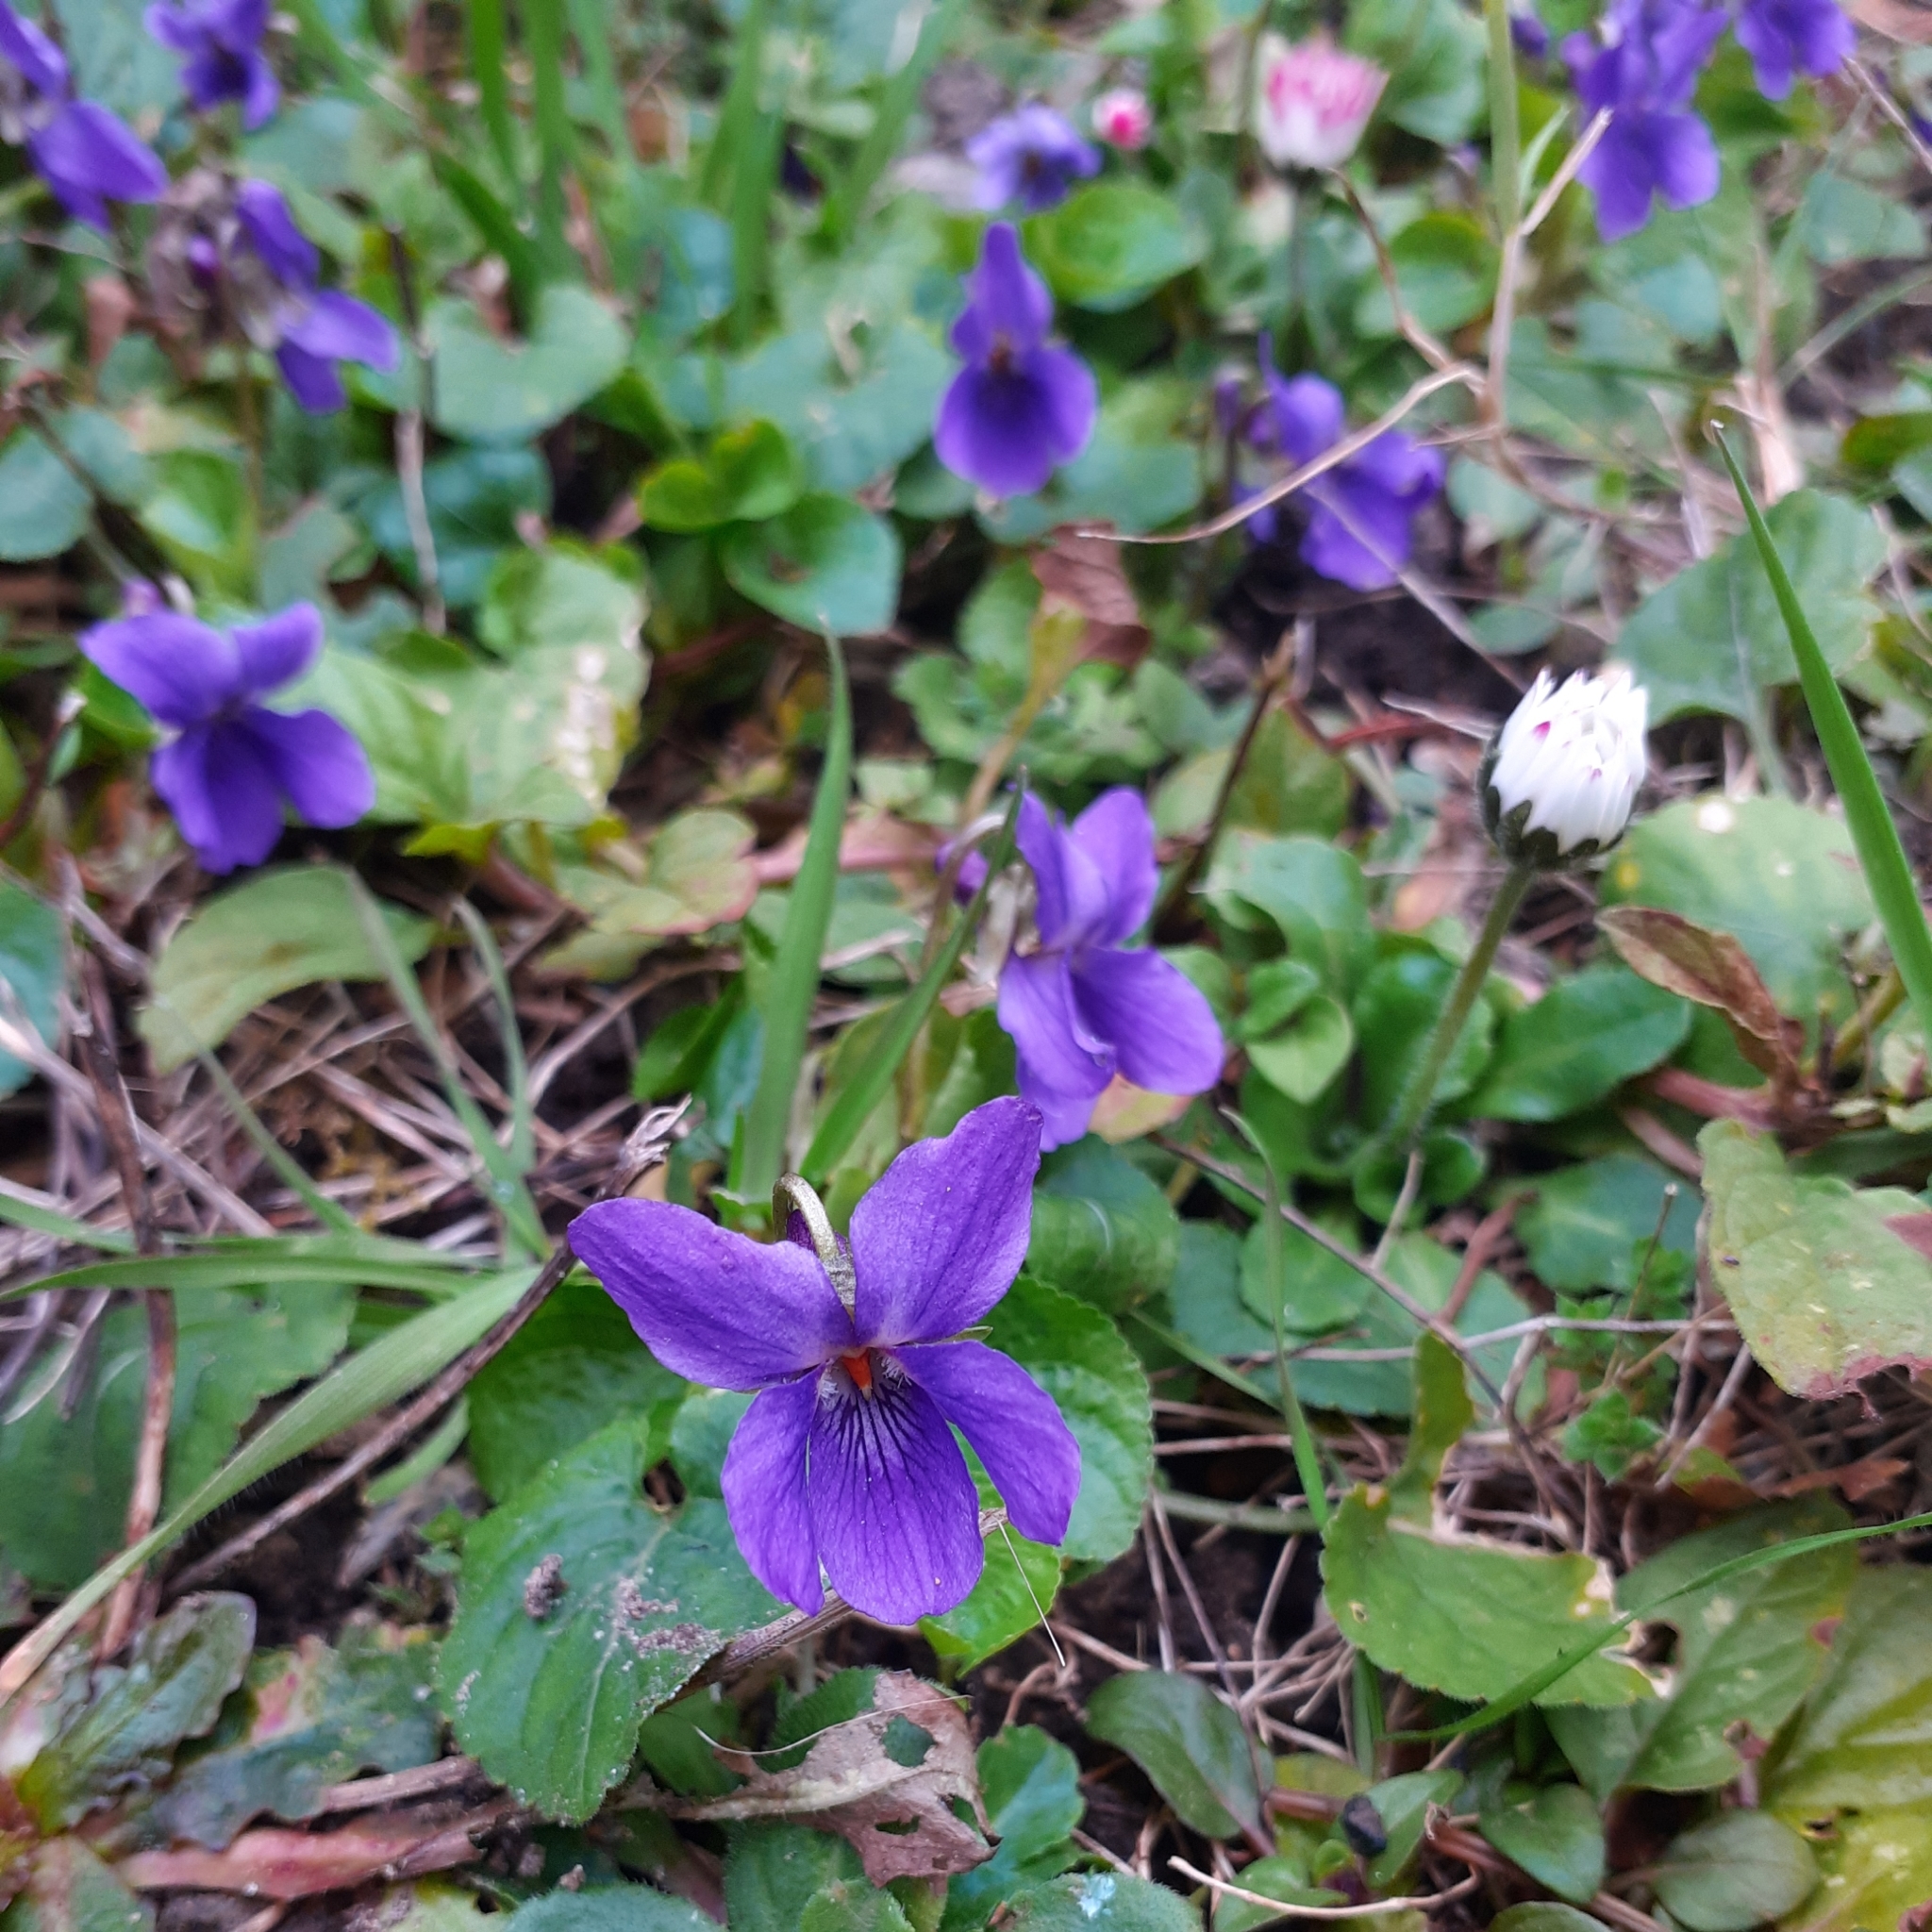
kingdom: Plantae
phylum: Tracheophyta
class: Magnoliopsida
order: Malpighiales
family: Violaceae
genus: Viola
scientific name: Viola odorata
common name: Sweet violet
